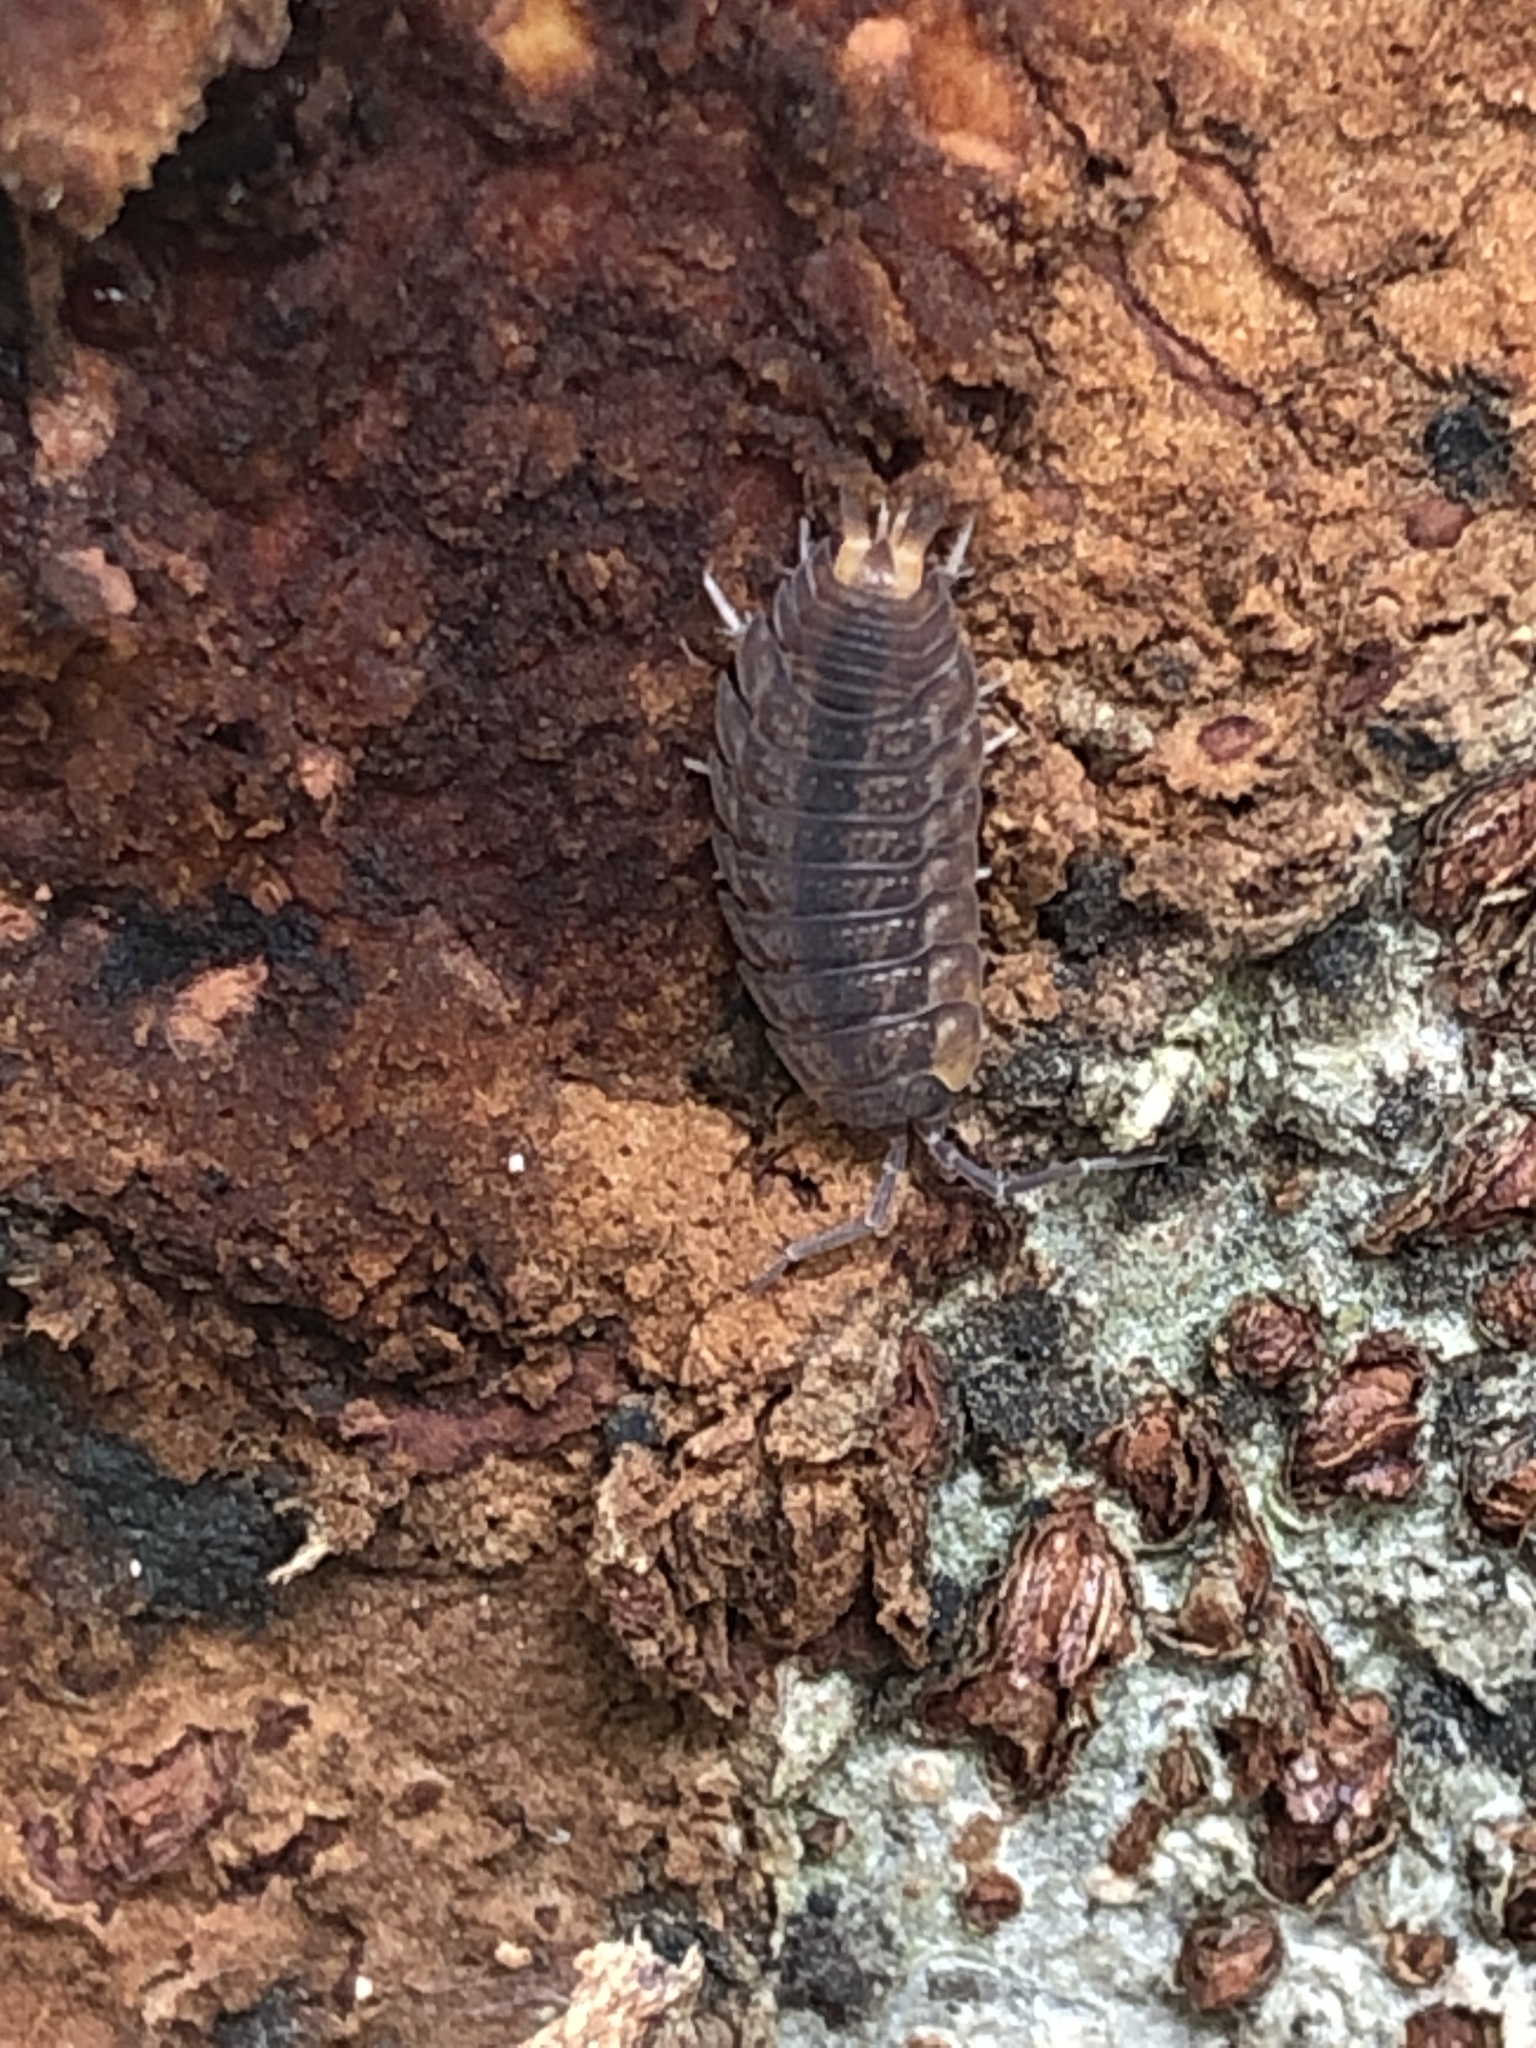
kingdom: Animalia
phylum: Arthropoda
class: Malacostraca
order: Isopoda
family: Agnaridae
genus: Koreoniscus
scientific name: Koreoniscus racovitzai
